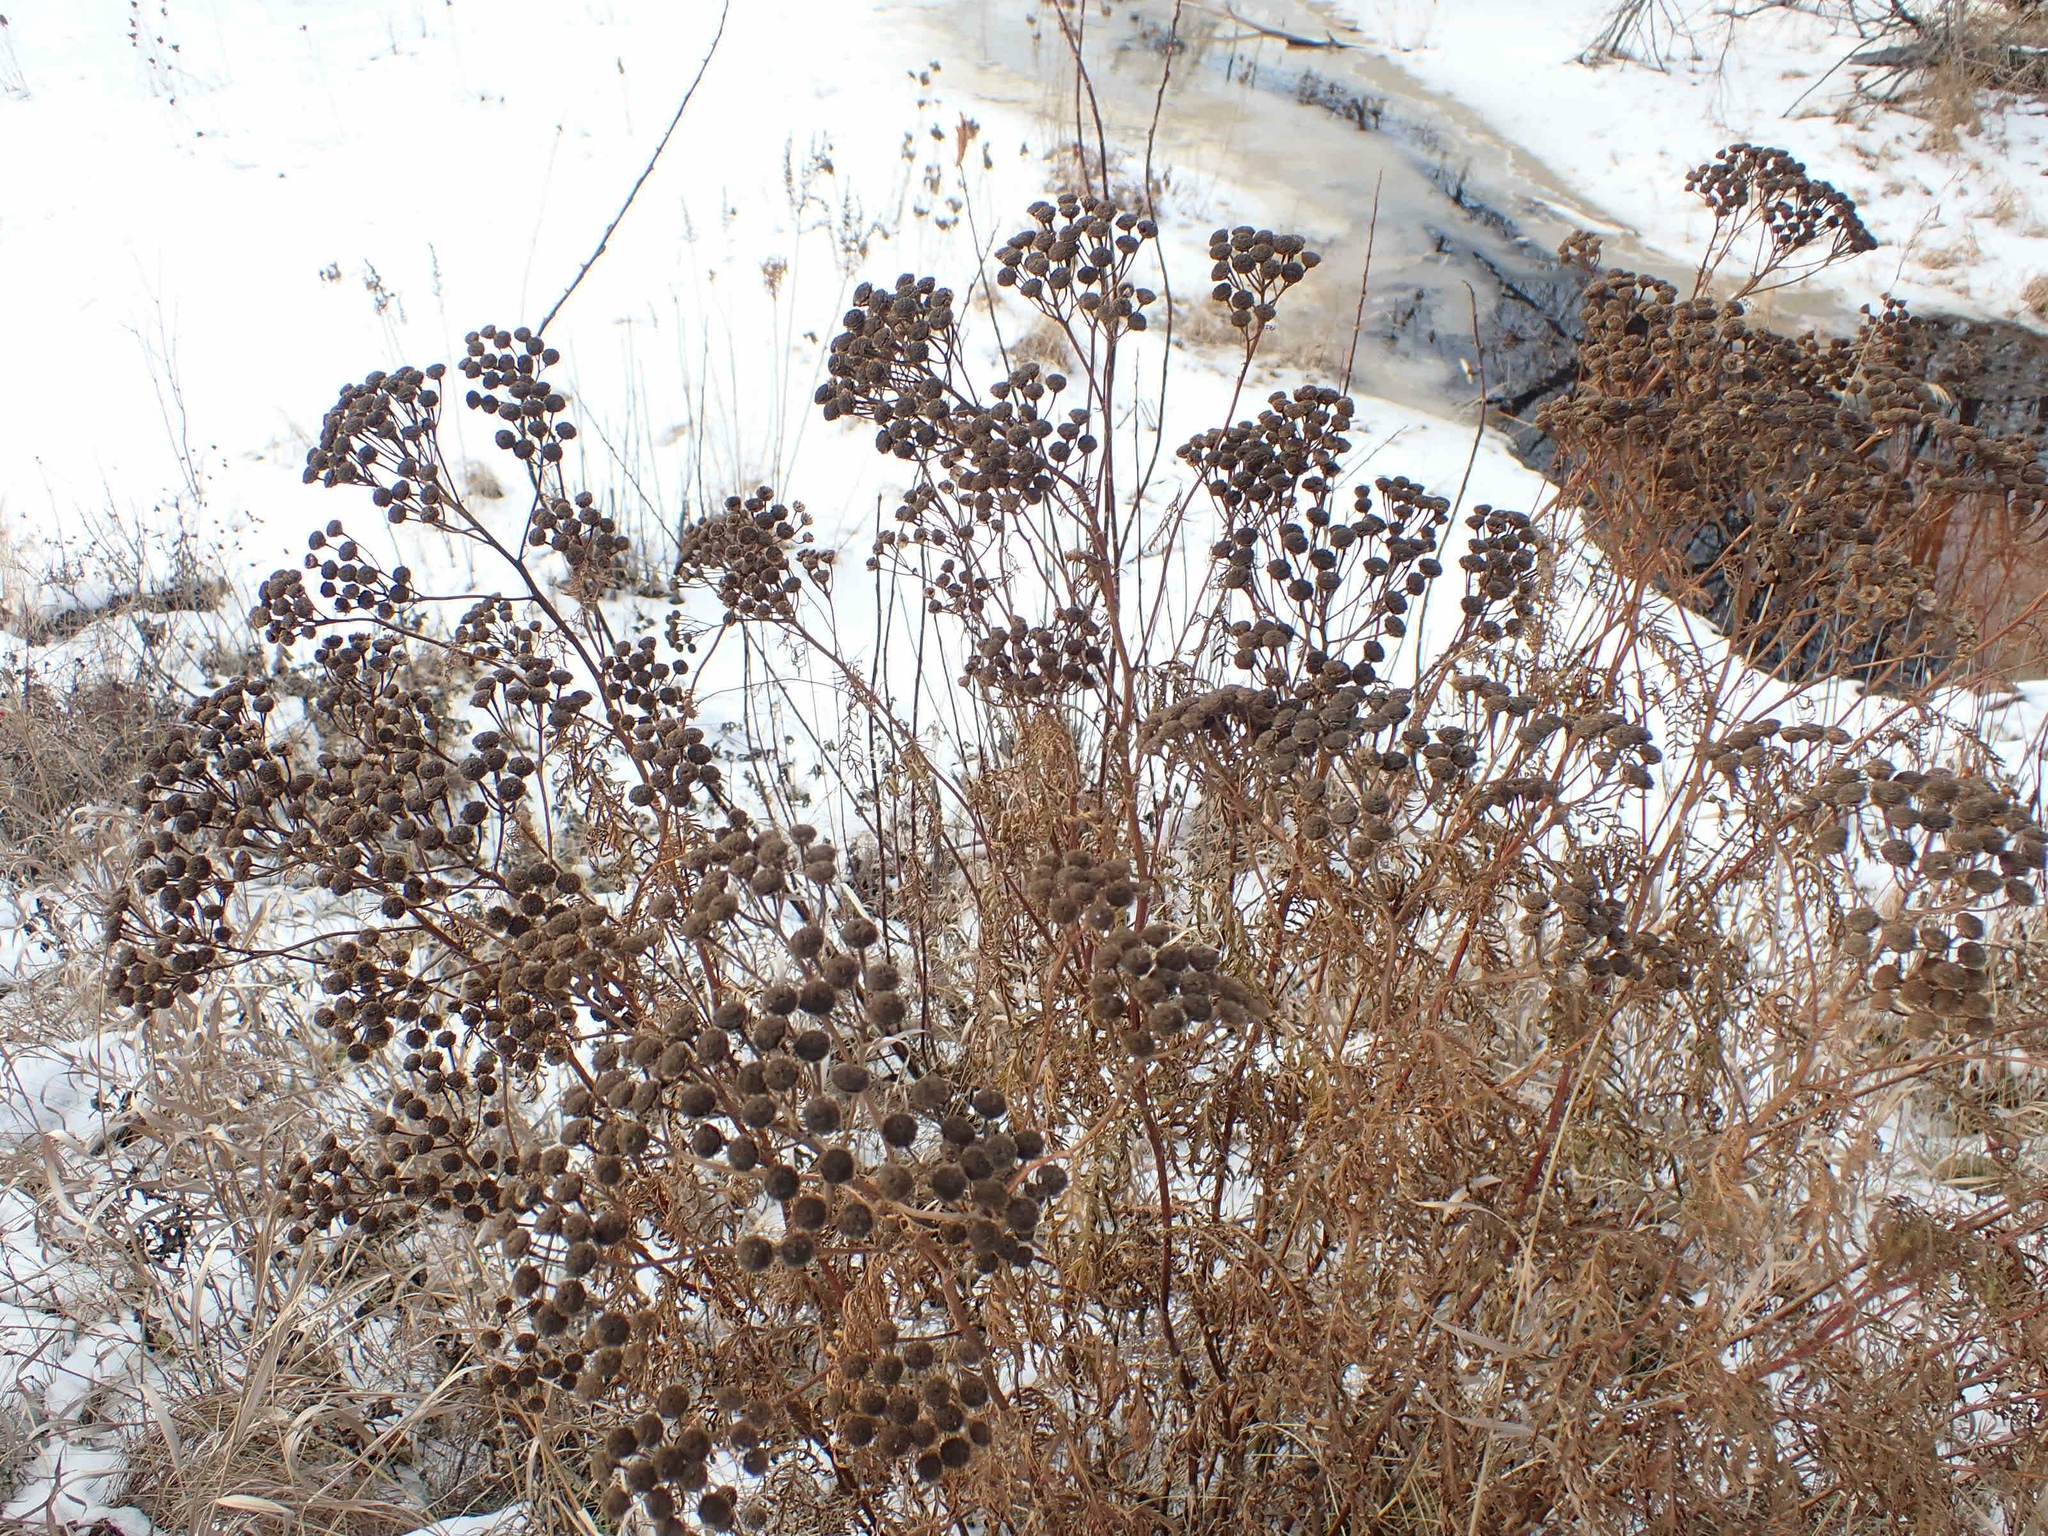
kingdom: Plantae
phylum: Tracheophyta
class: Magnoliopsida
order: Asterales
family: Asteraceae
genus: Tanacetum
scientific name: Tanacetum vulgare
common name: Common tansy
